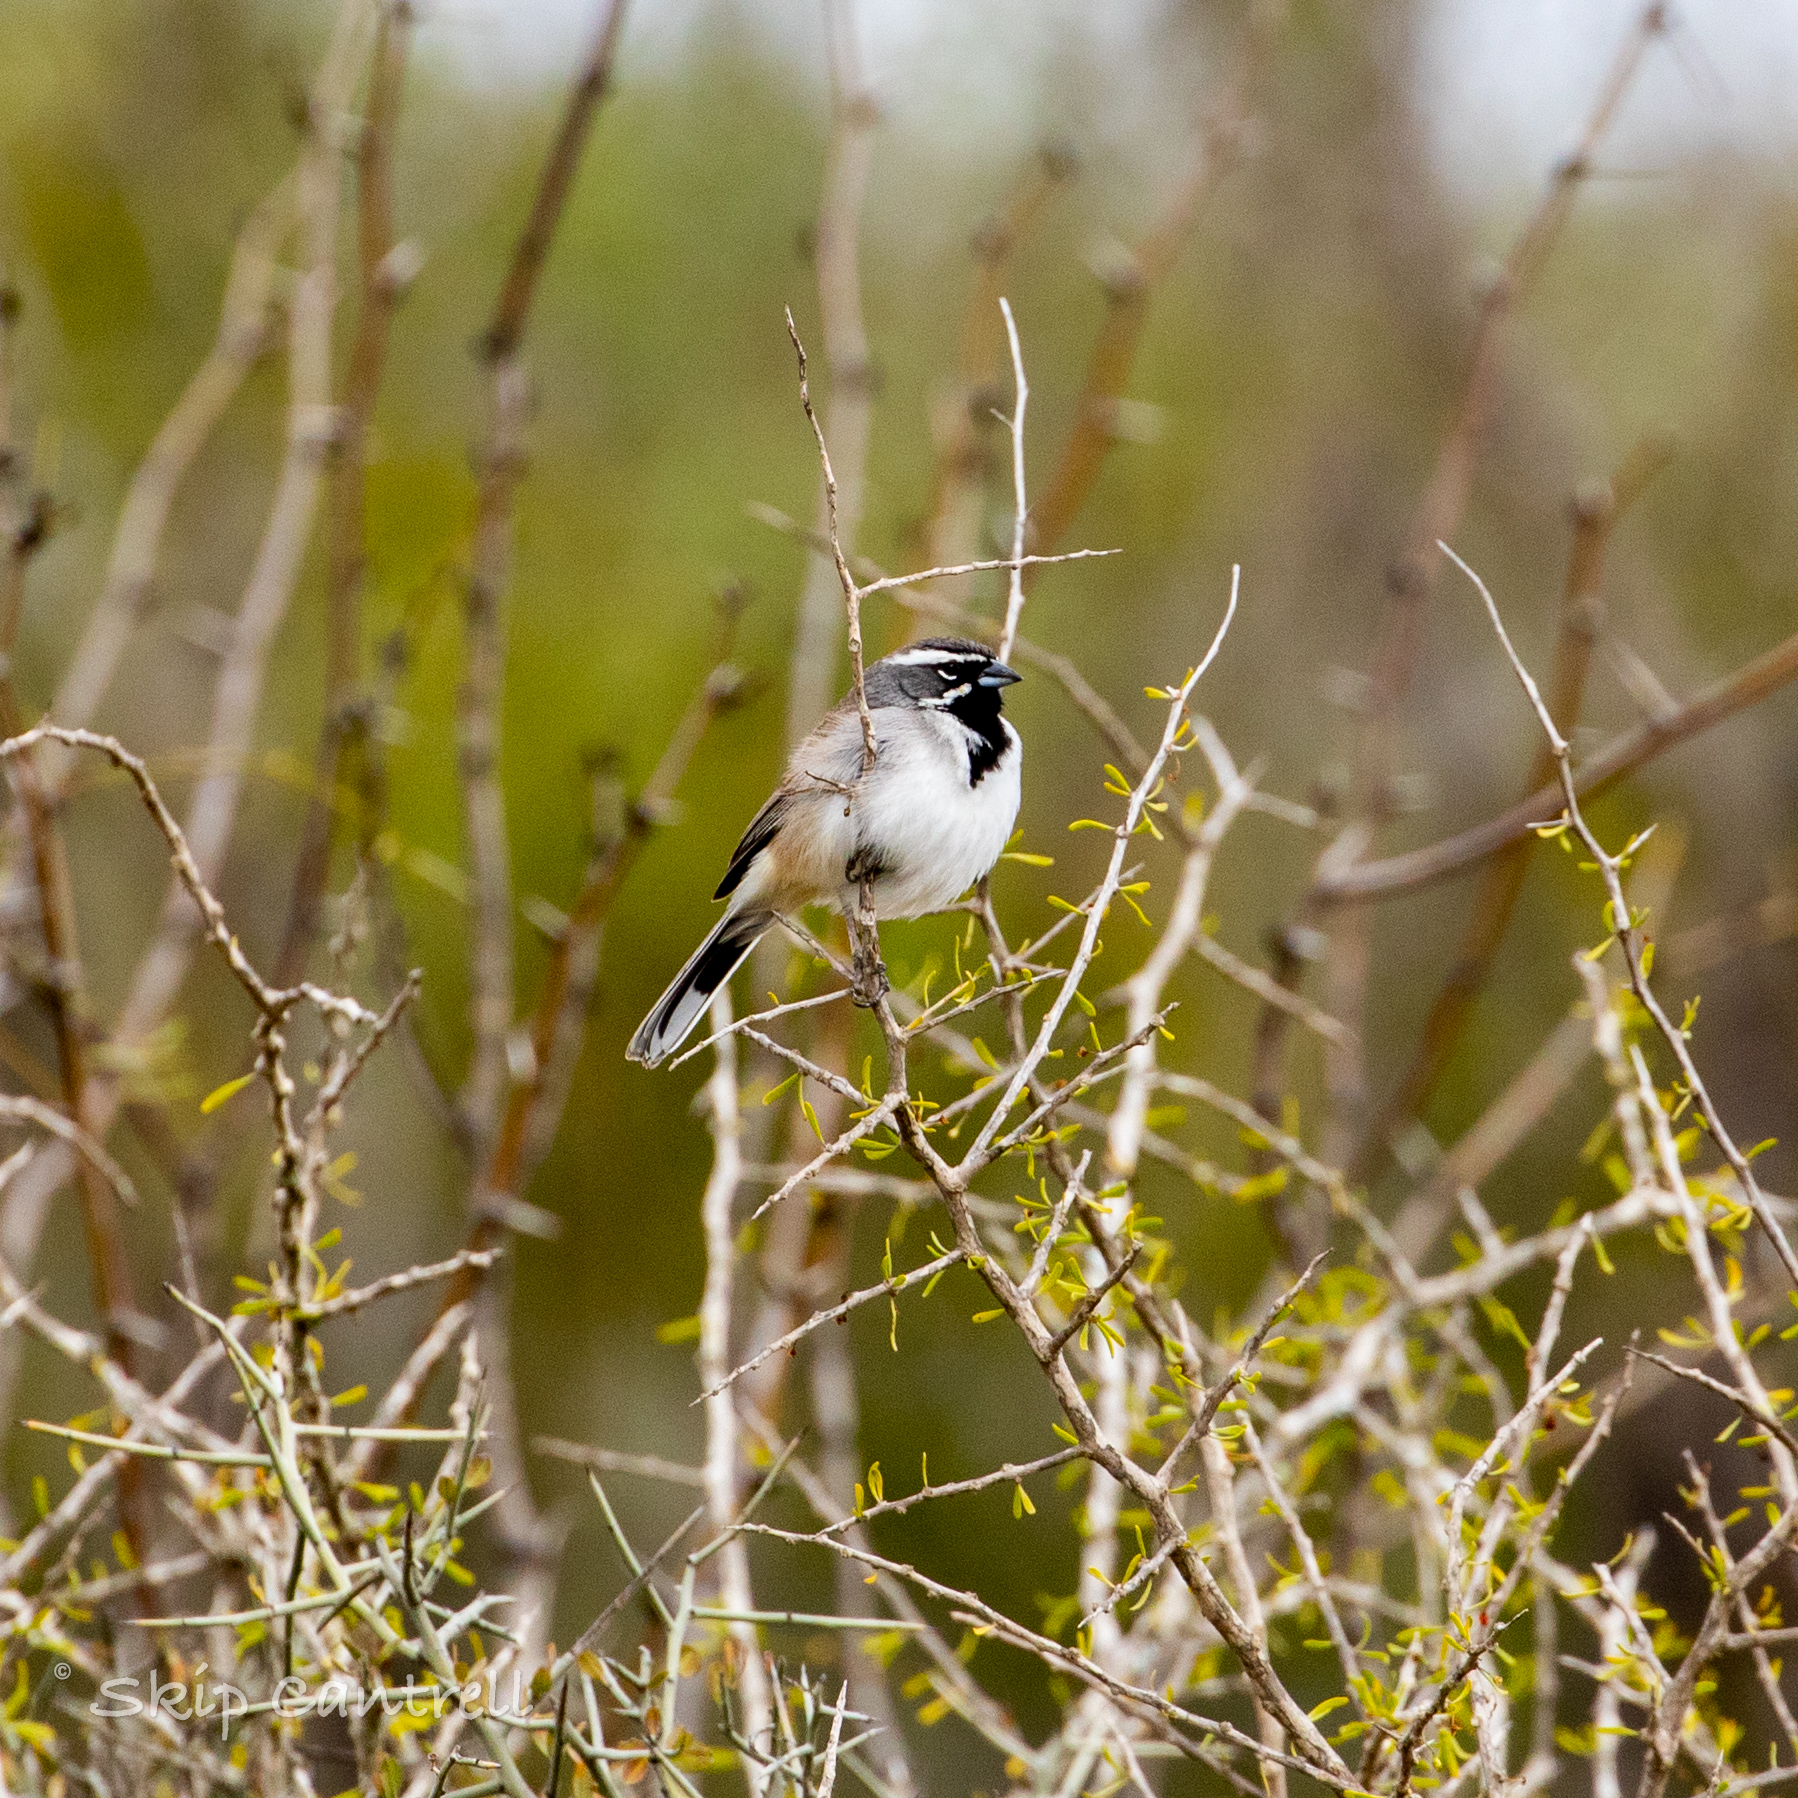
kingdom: Animalia
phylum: Chordata
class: Aves
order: Passeriformes
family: Passerellidae
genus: Amphispiza
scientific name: Amphispiza bilineata
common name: Black-throated sparrow
